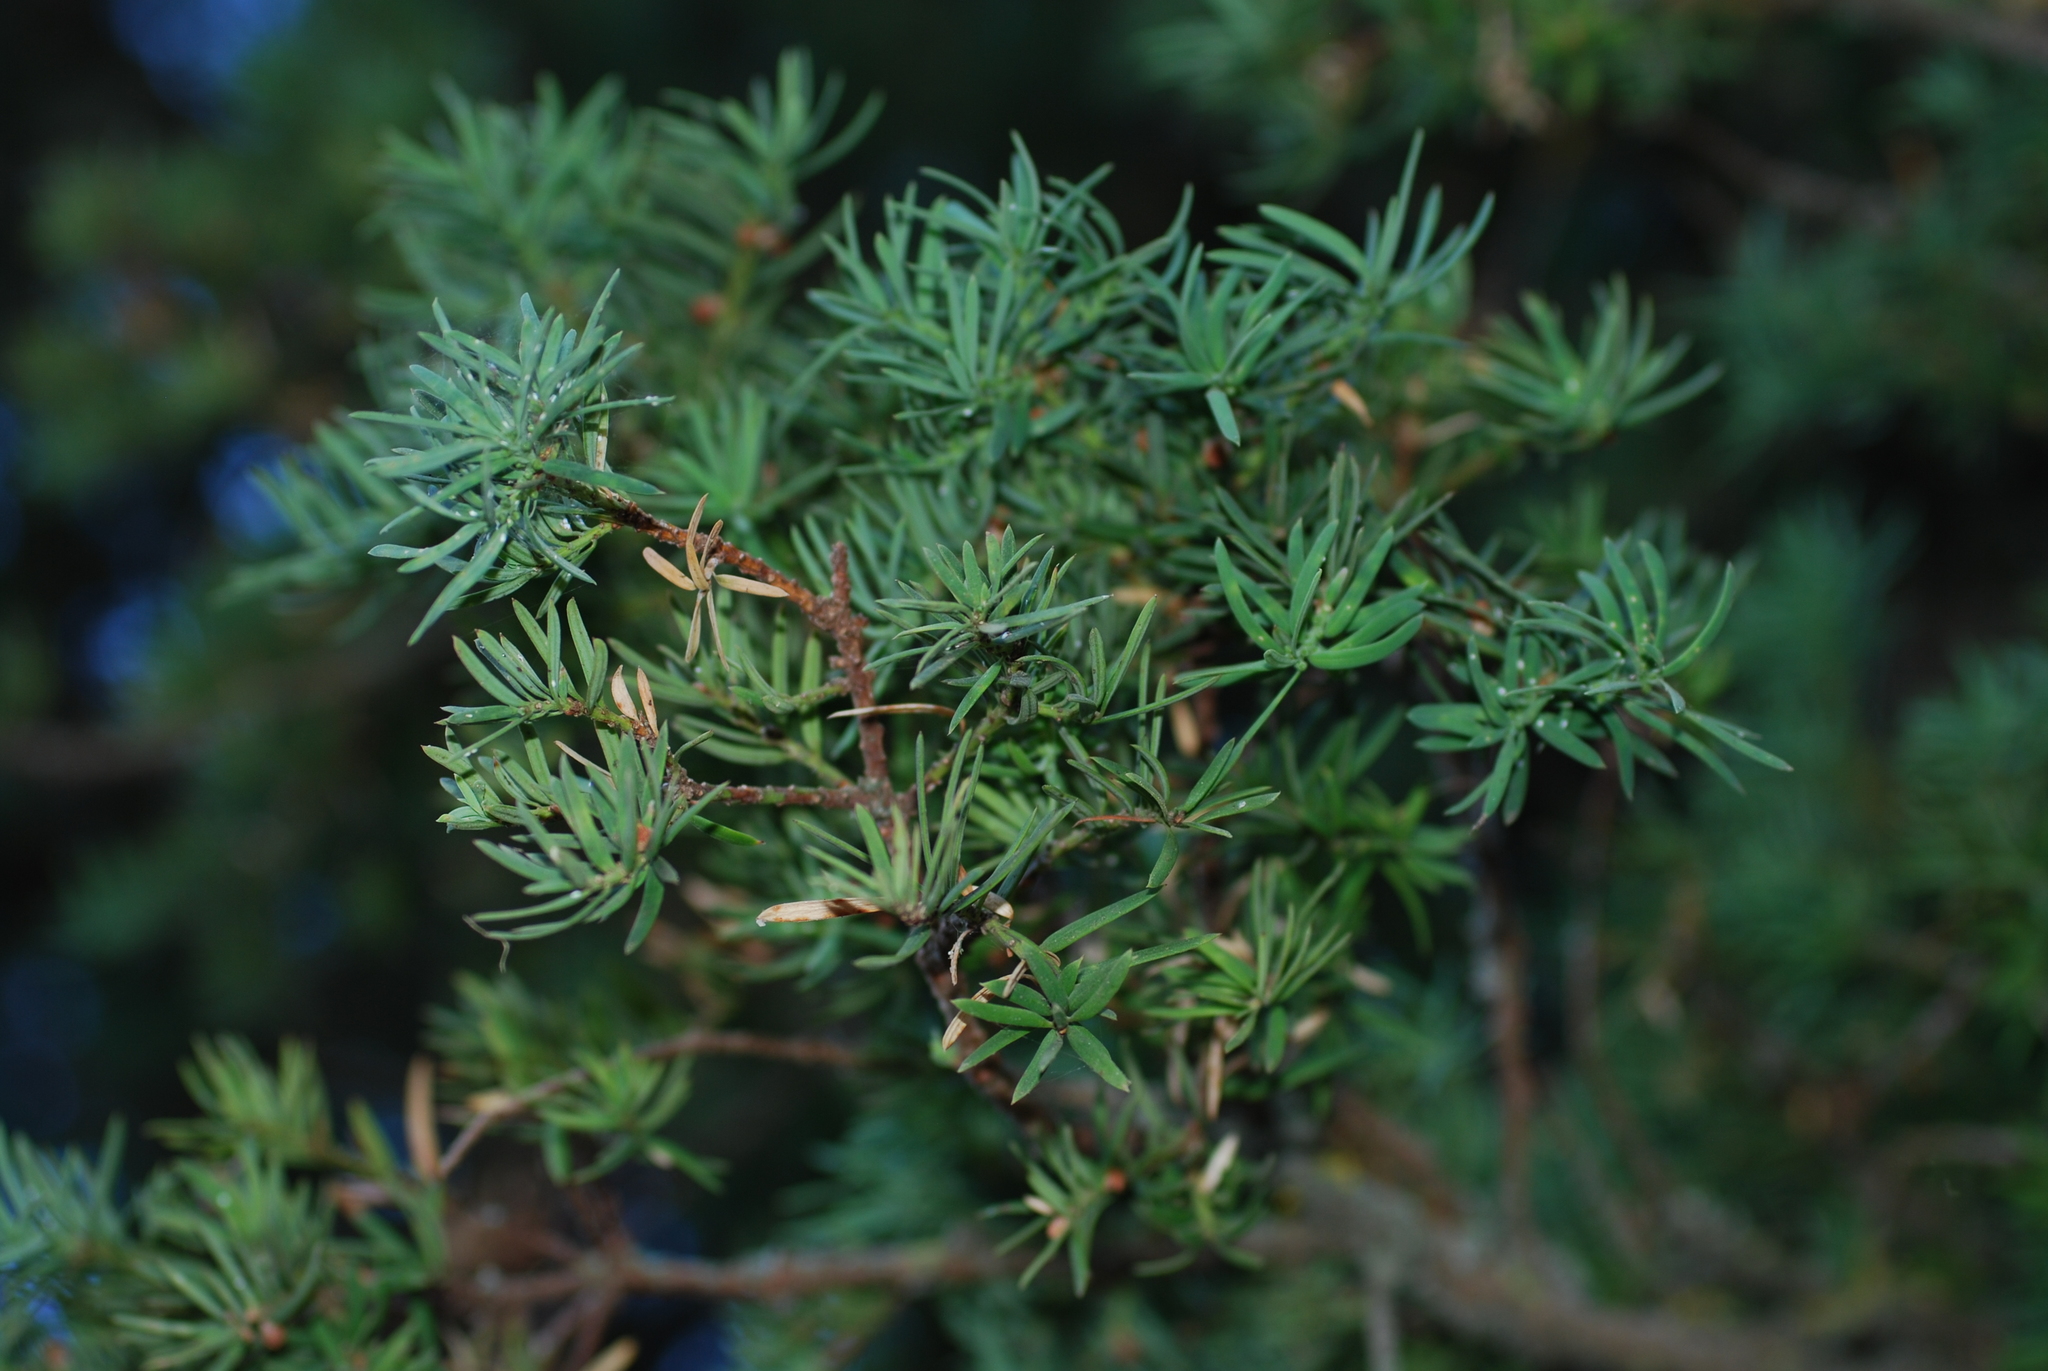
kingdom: Plantae
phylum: Tracheophyta
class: Pinopsida
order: Pinales
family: Taxaceae
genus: Taxus
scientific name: Taxus baccata
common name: Yew
